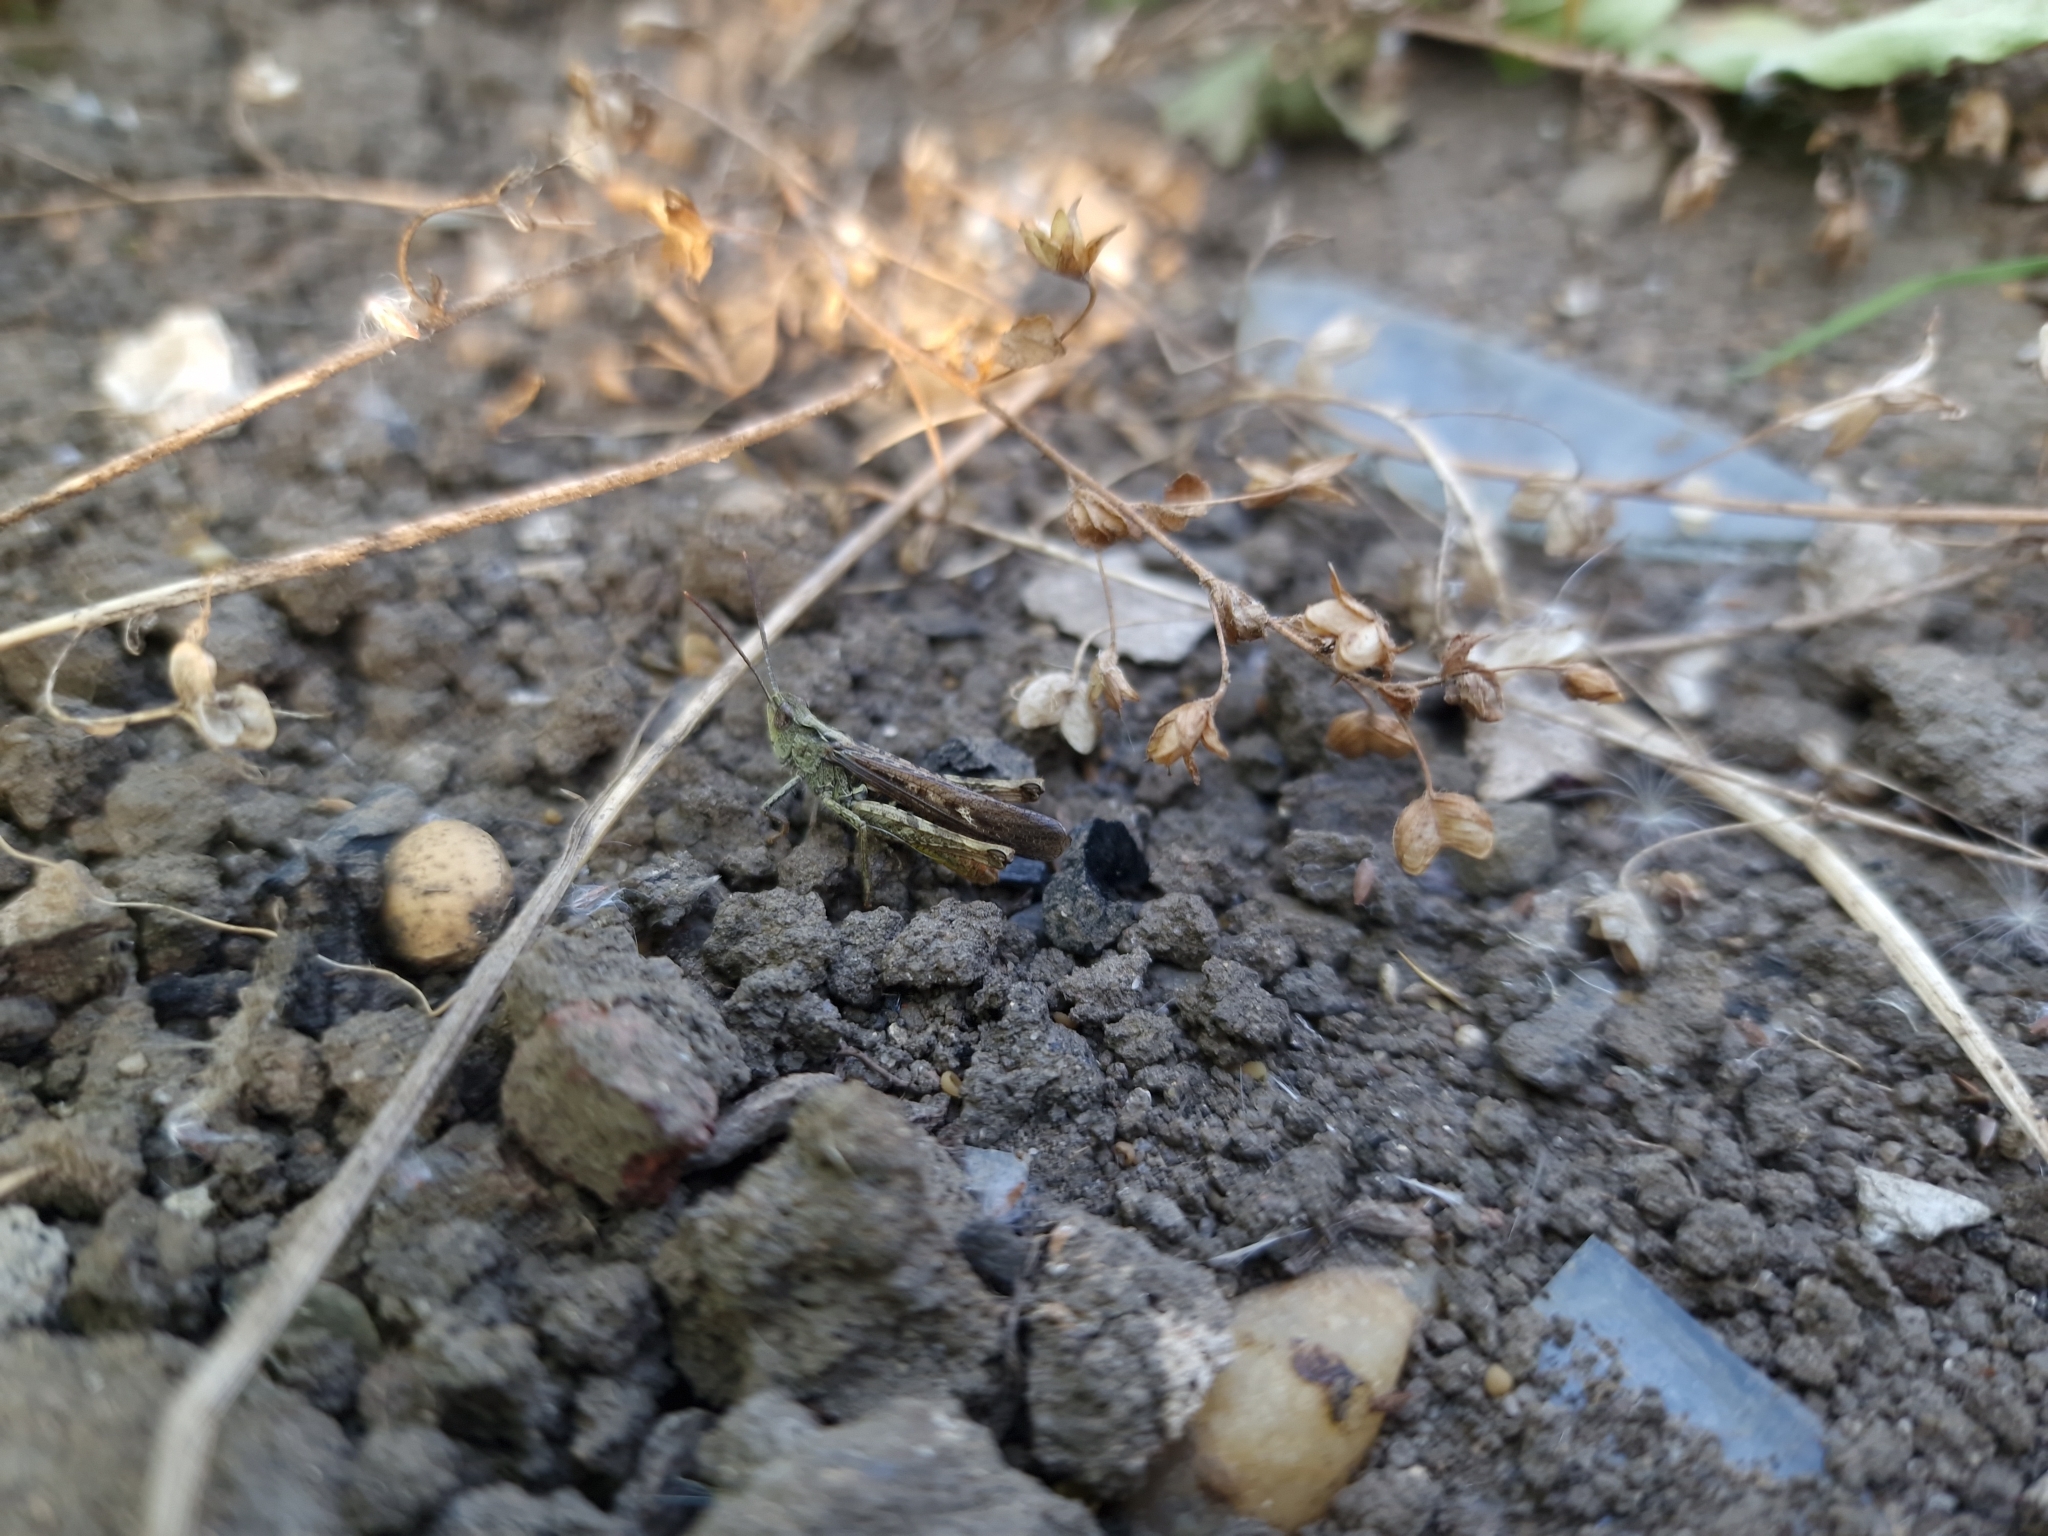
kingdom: Animalia
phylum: Arthropoda
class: Insecta
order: Orthoptera
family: Acrididae
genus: Chorthippus
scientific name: Chorthippus brunneus
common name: Field grasshopper
